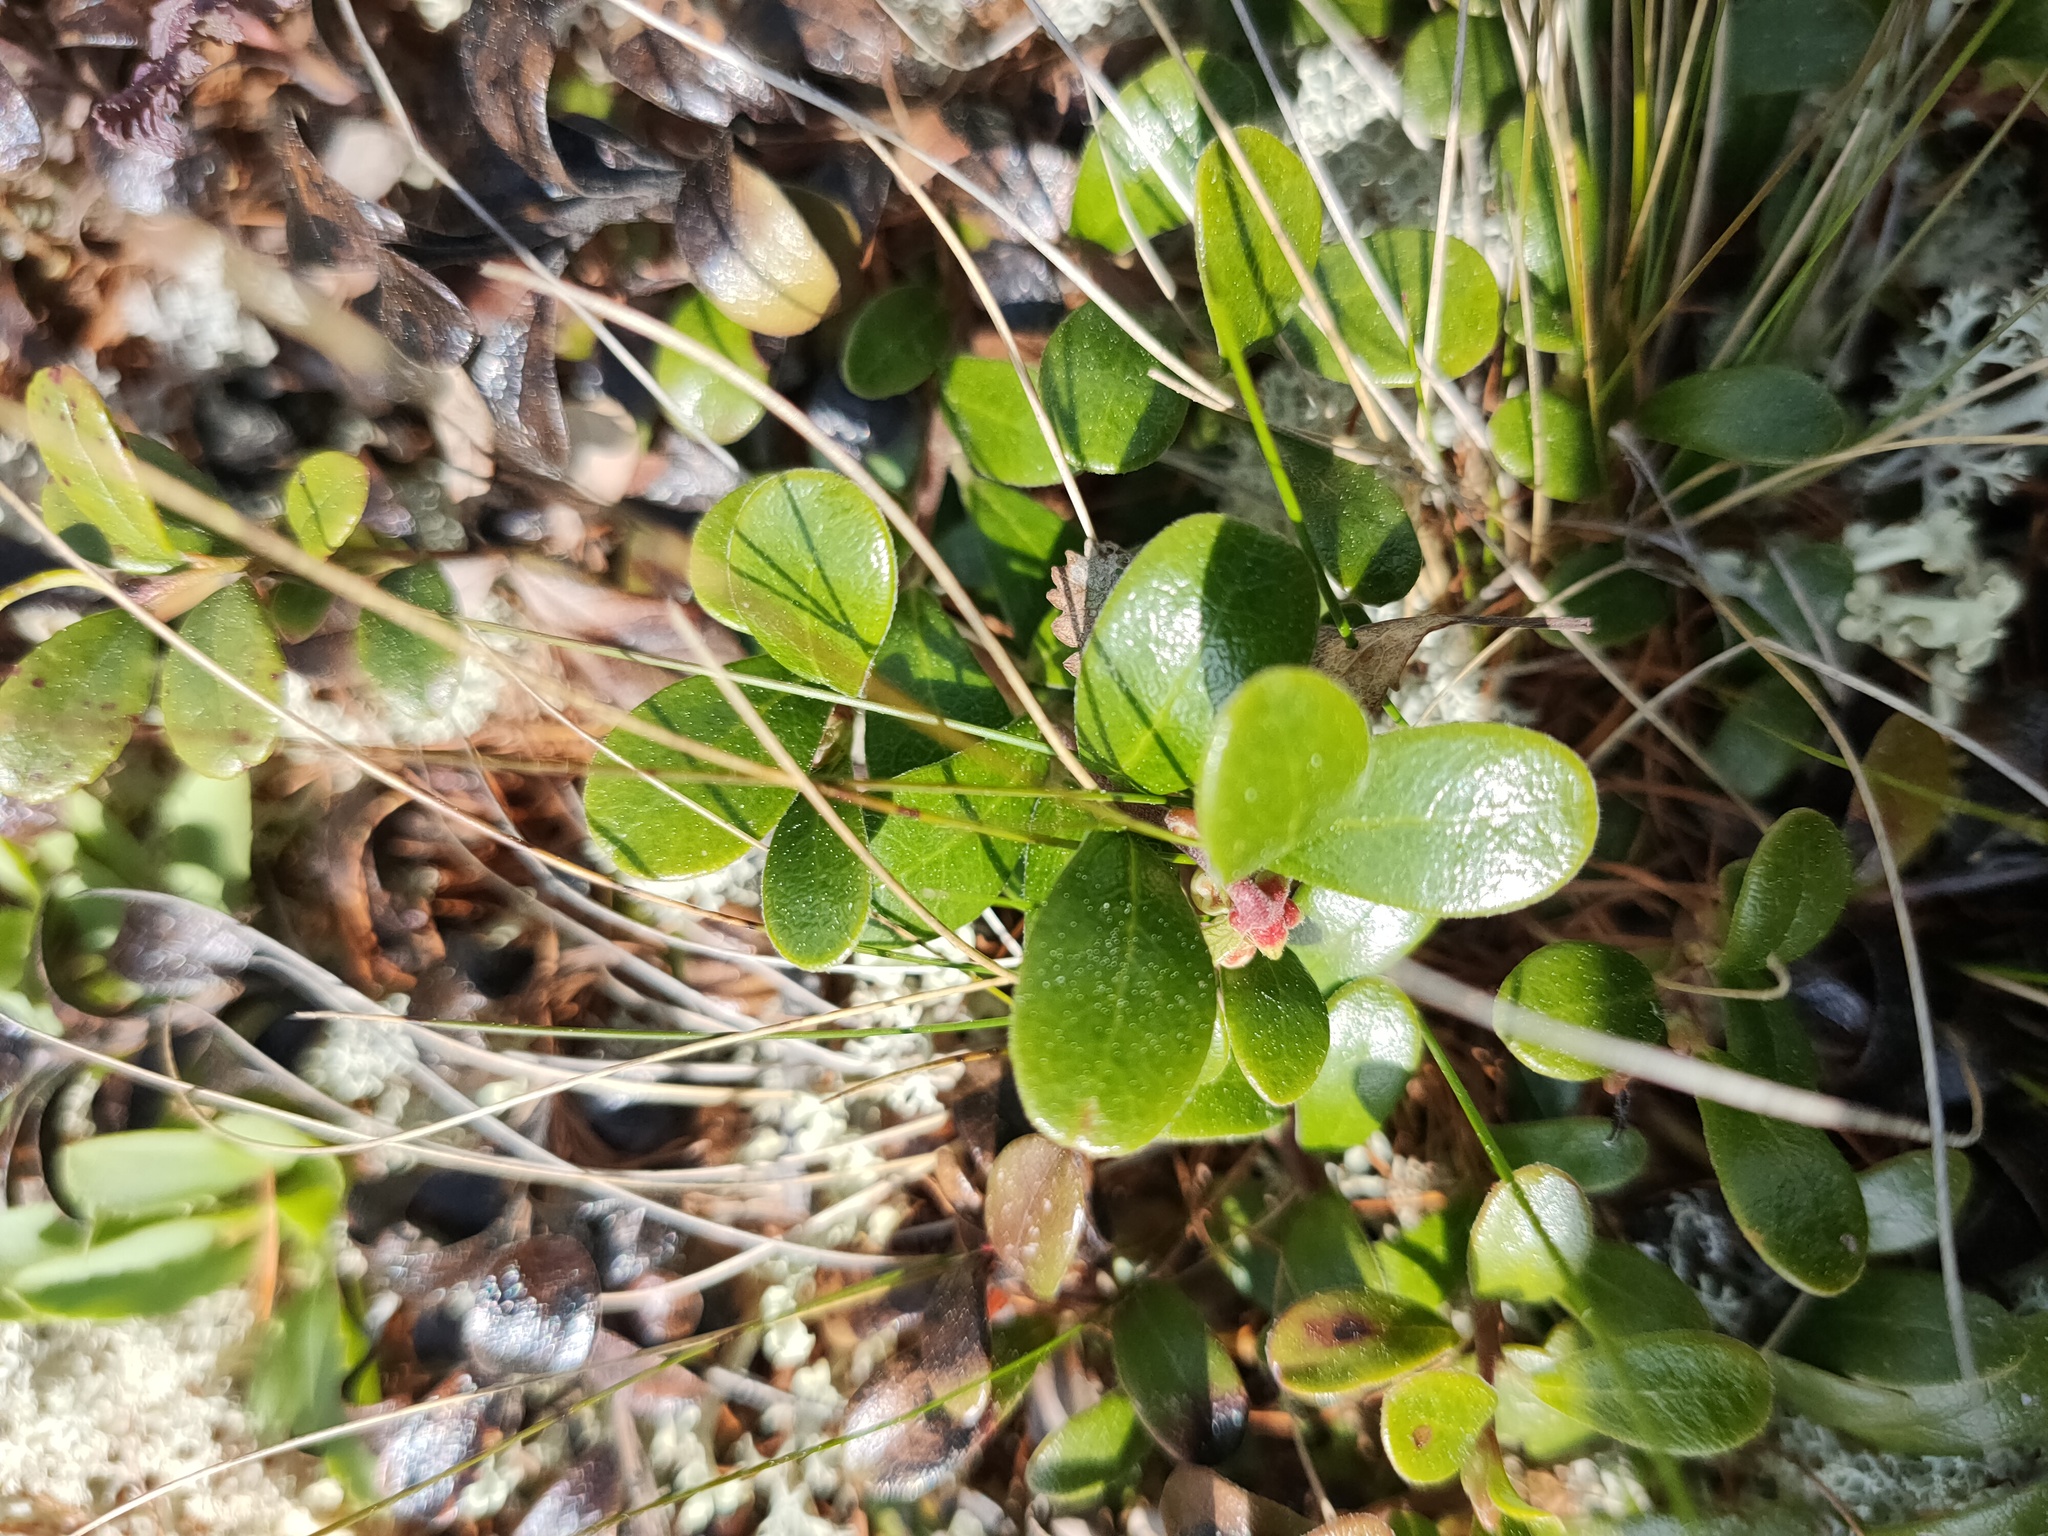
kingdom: Plantae
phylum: Tracheophyta
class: Magnoliopsida
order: Ericales
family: Ericaceae
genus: Vaccinium
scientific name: Vaccinium vitis-idaea
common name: Cowberry
